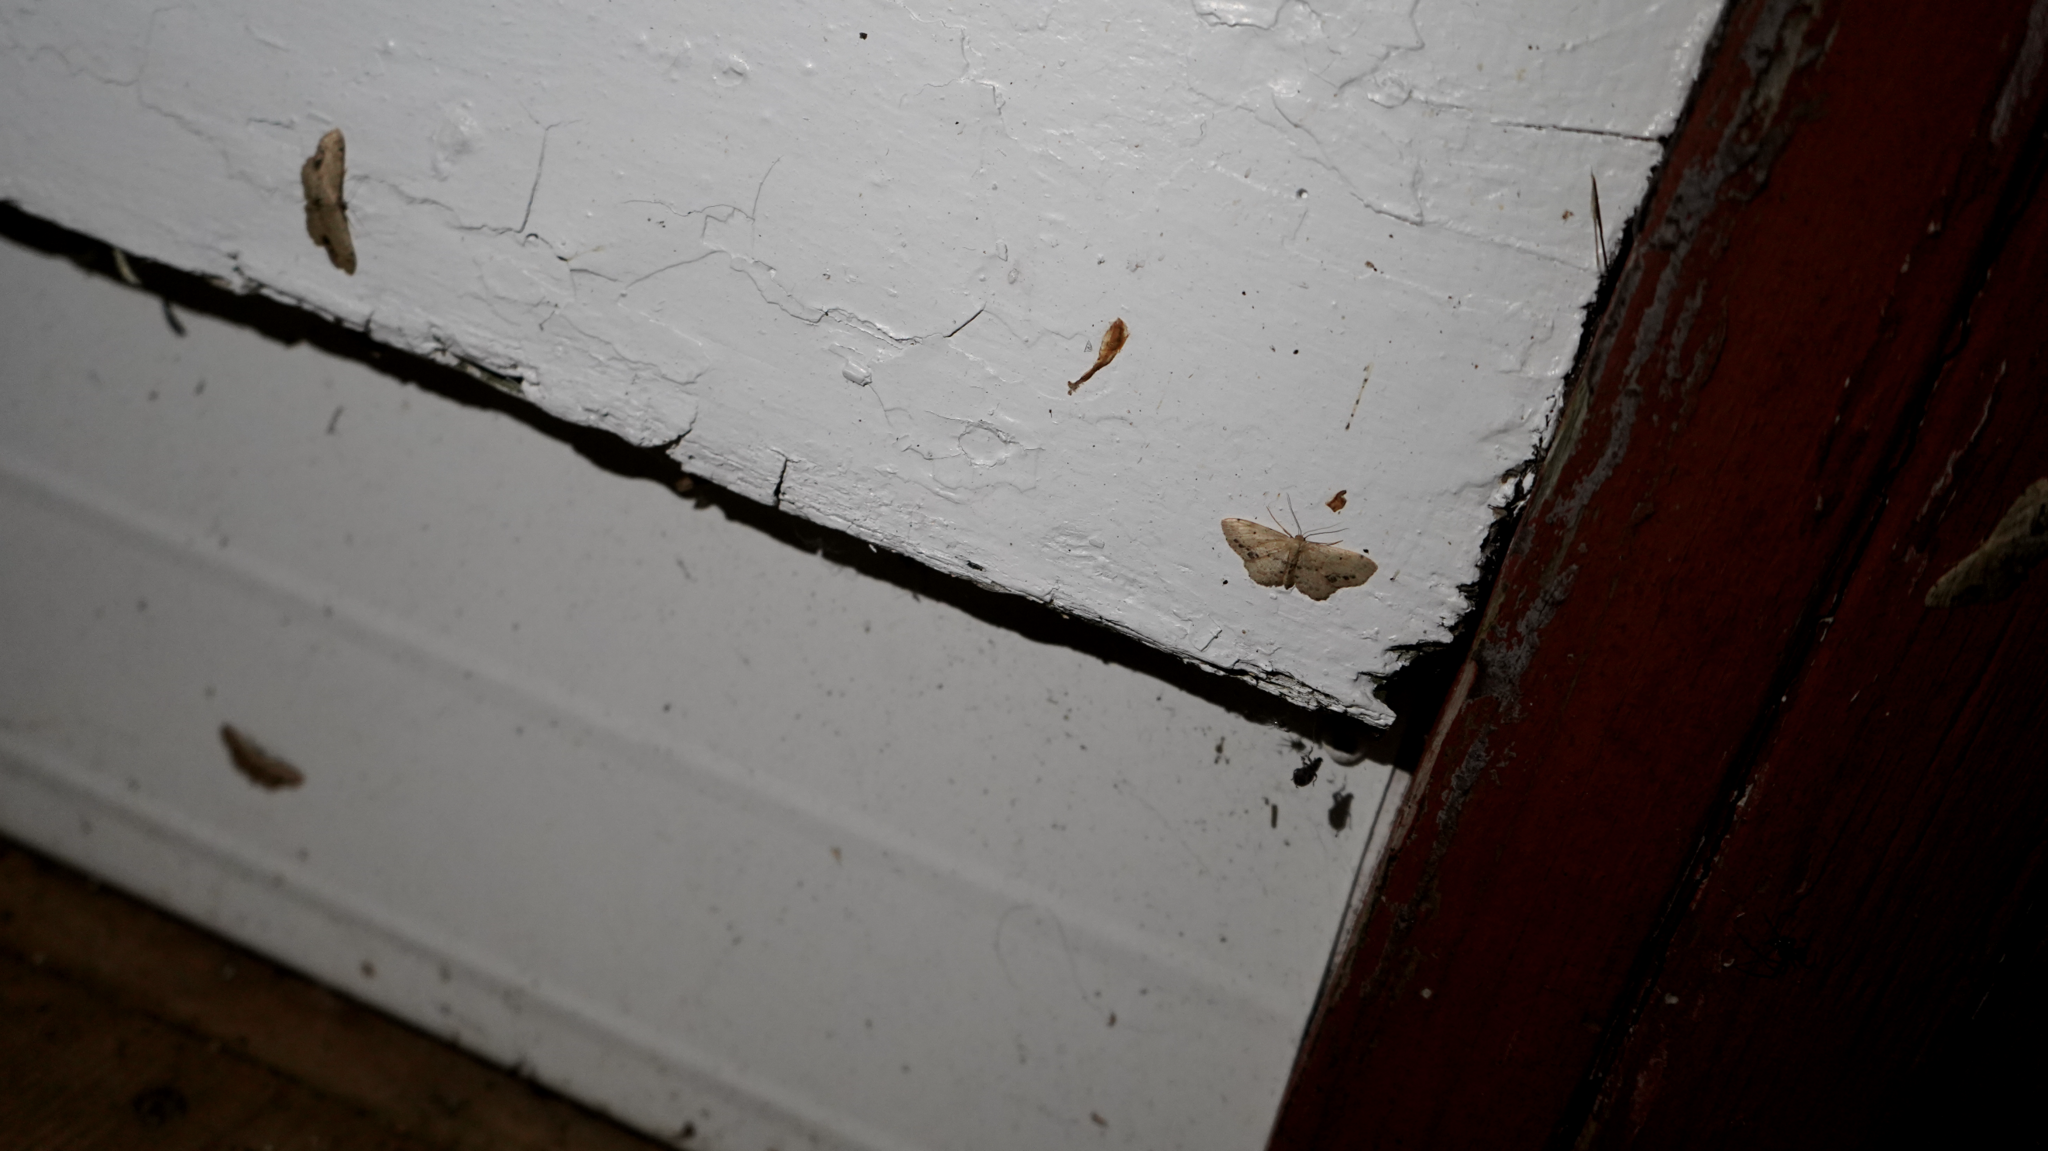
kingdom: Animalia
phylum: Arthropoda
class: Insecta
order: Lepidoptera
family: Geometridae
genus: Idaea
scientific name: Idaea dimidiata
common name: Single-dotted wave
